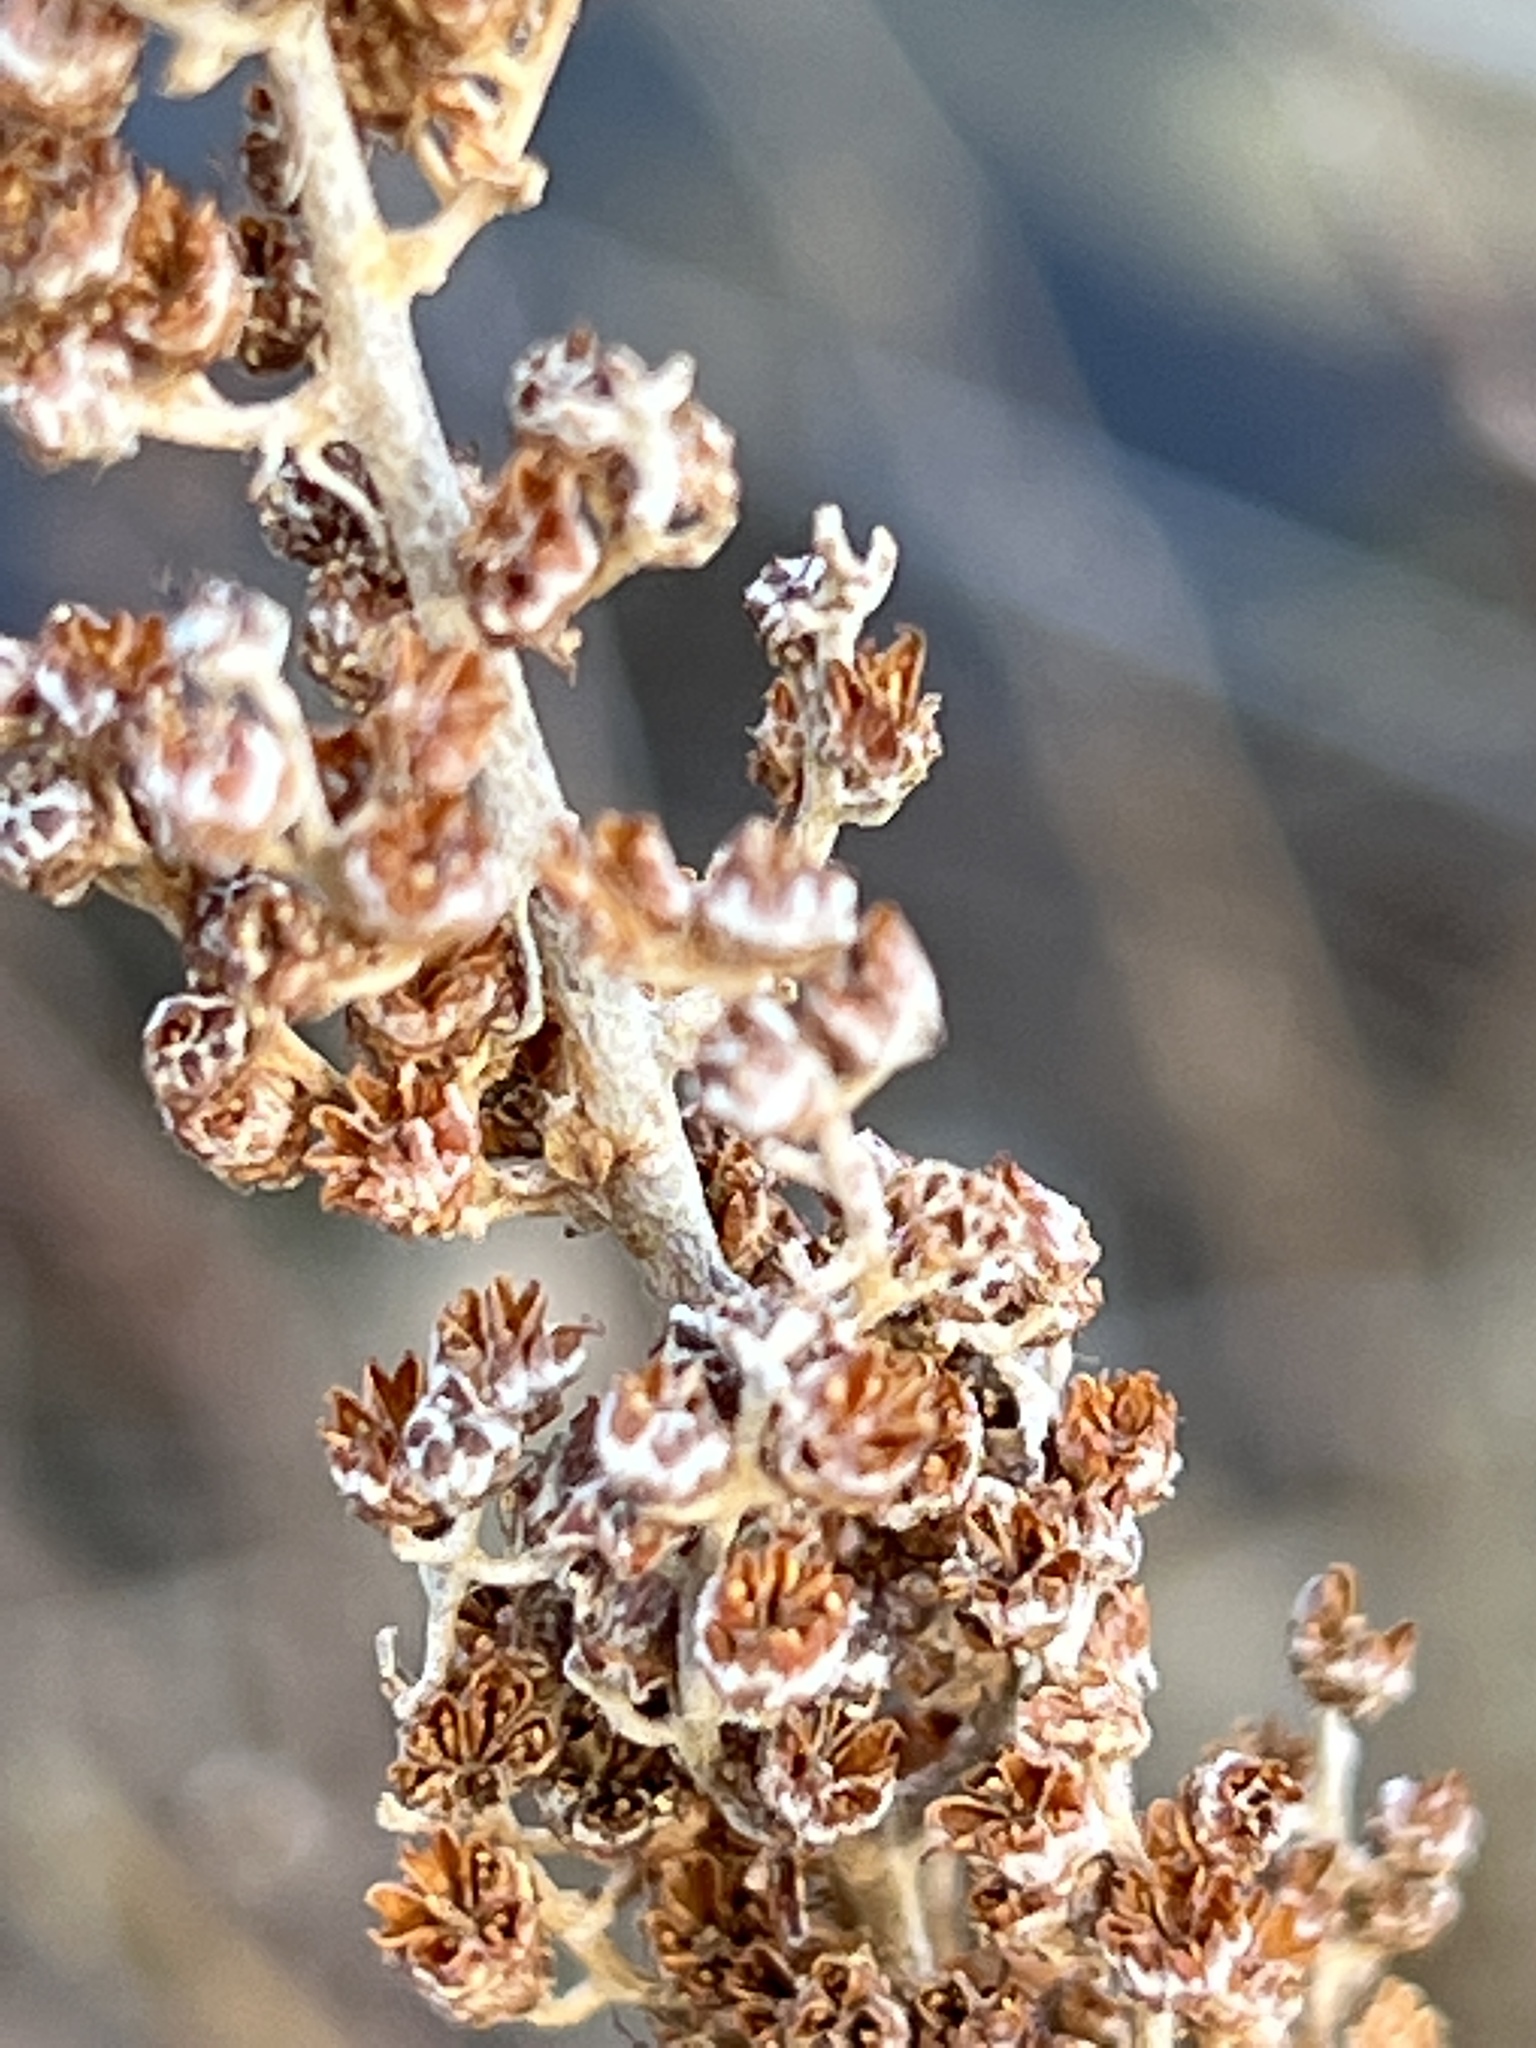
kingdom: Plantae
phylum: Tracheophyta
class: Magnoliopsida
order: Rosales
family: Rosaceae
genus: Spiraea
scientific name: Spiraea tomentosa
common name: Hardhack
